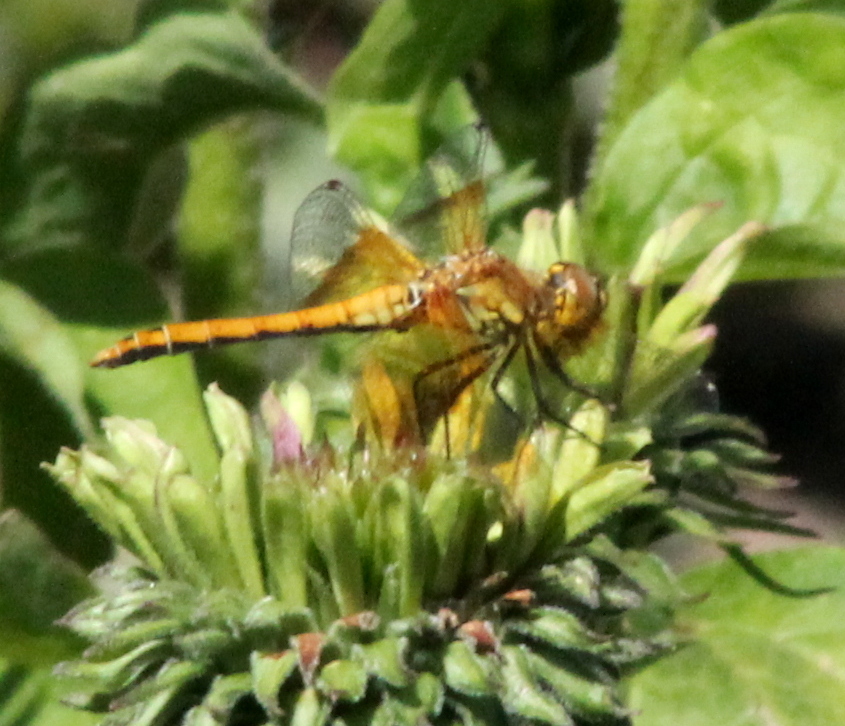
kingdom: Animalia
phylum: Arthropoda
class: Insecta
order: Odonata
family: Libellulidae
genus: Sympetrum
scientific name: Sympetrum semicinctum
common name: Band-winged meadowhawk
